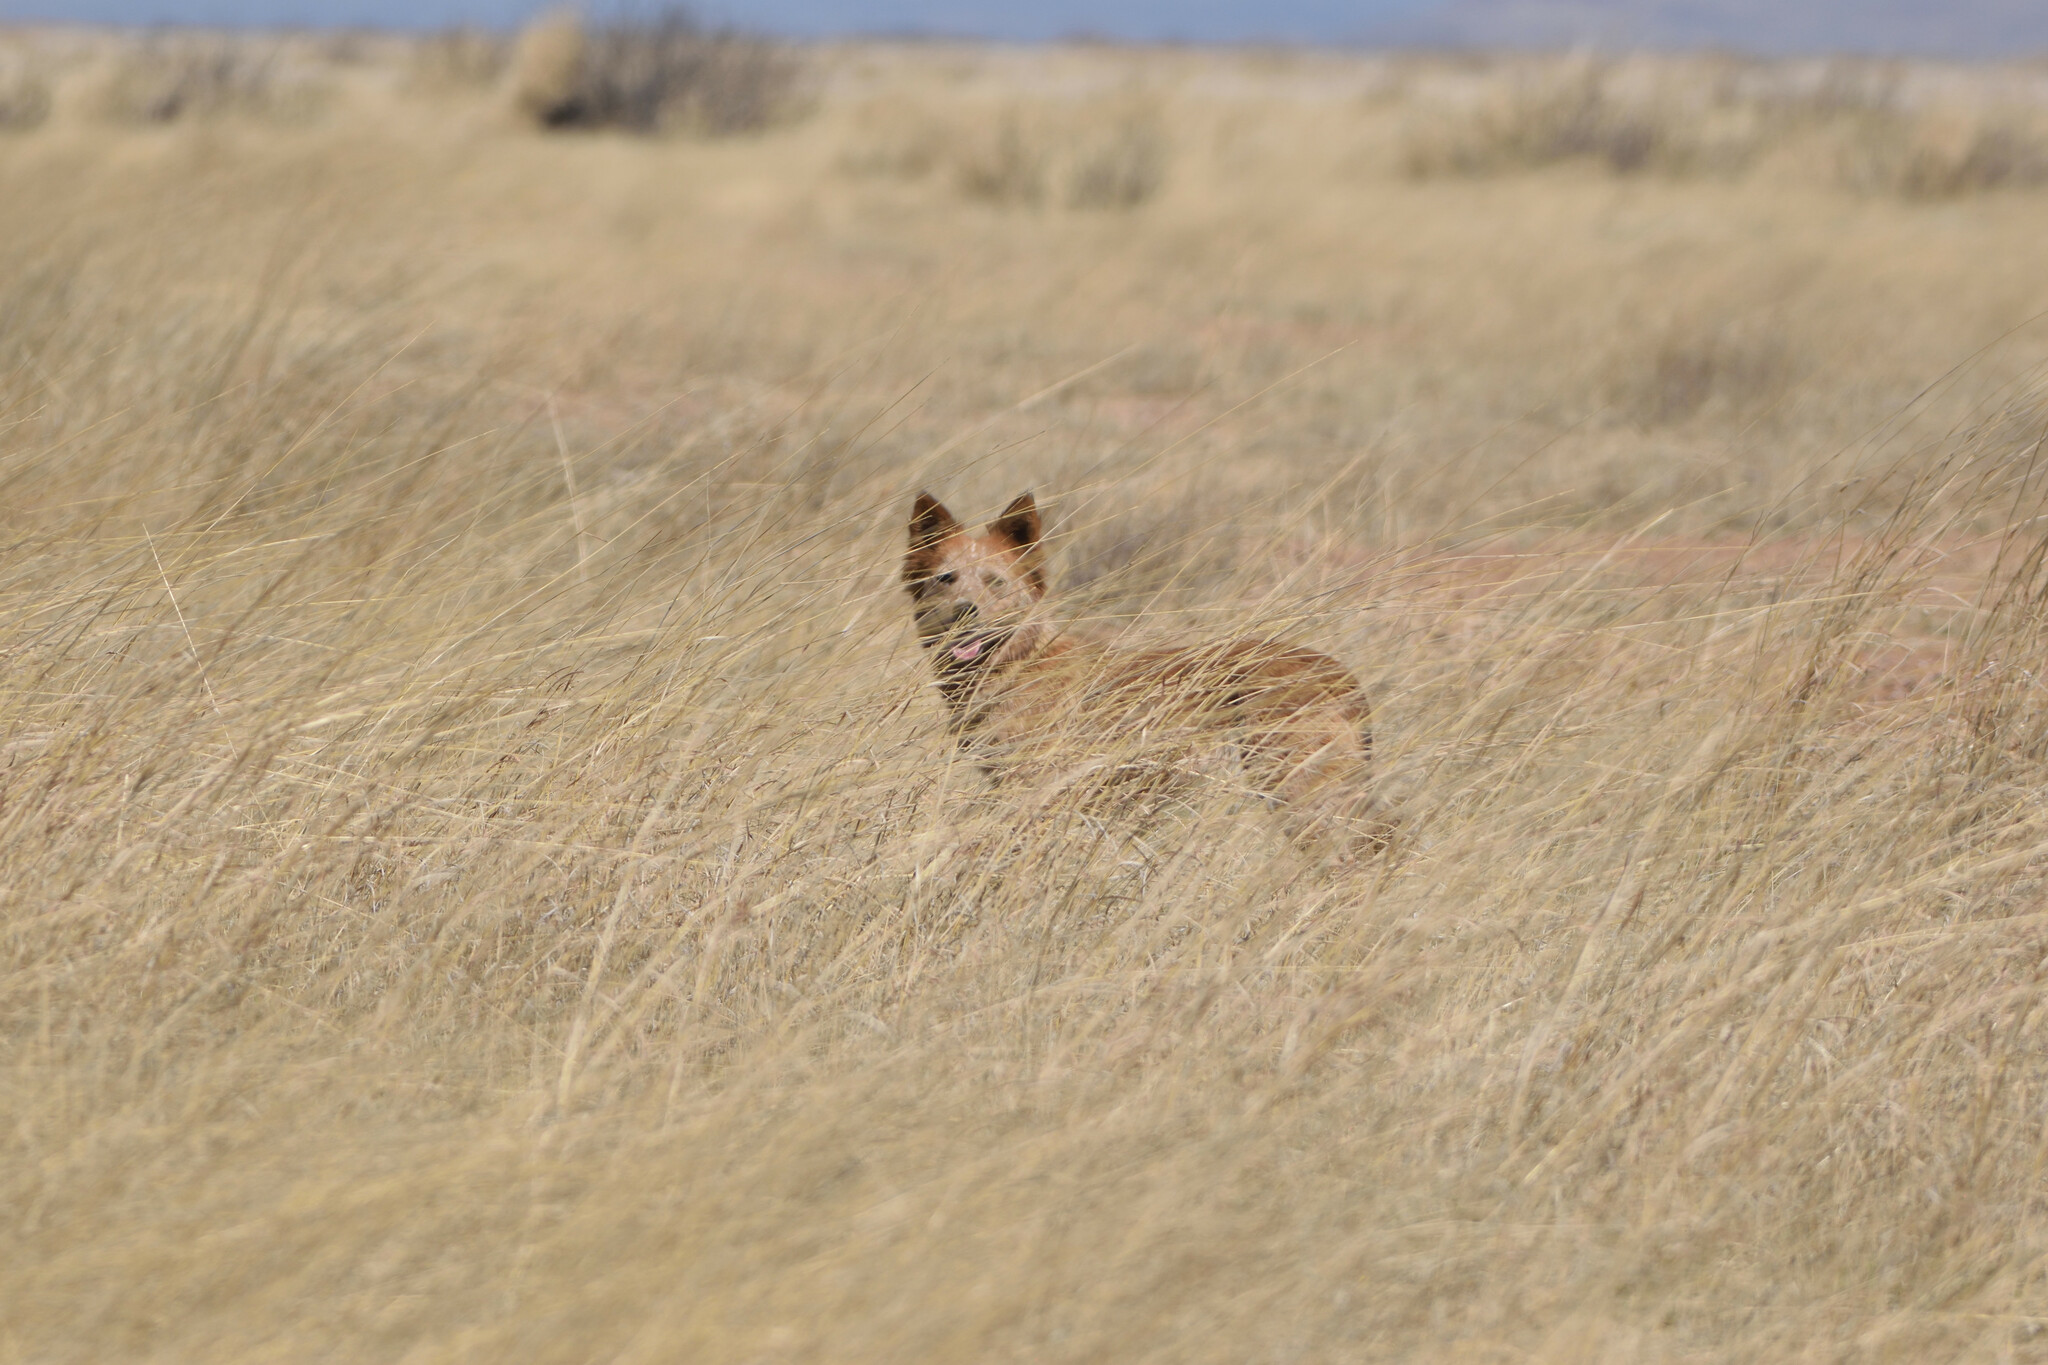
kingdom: Animalia
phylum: Chordata
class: Mammalia
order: Carnivora
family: Canidae
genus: Canis
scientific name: Canis lupus
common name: Gray wolf
